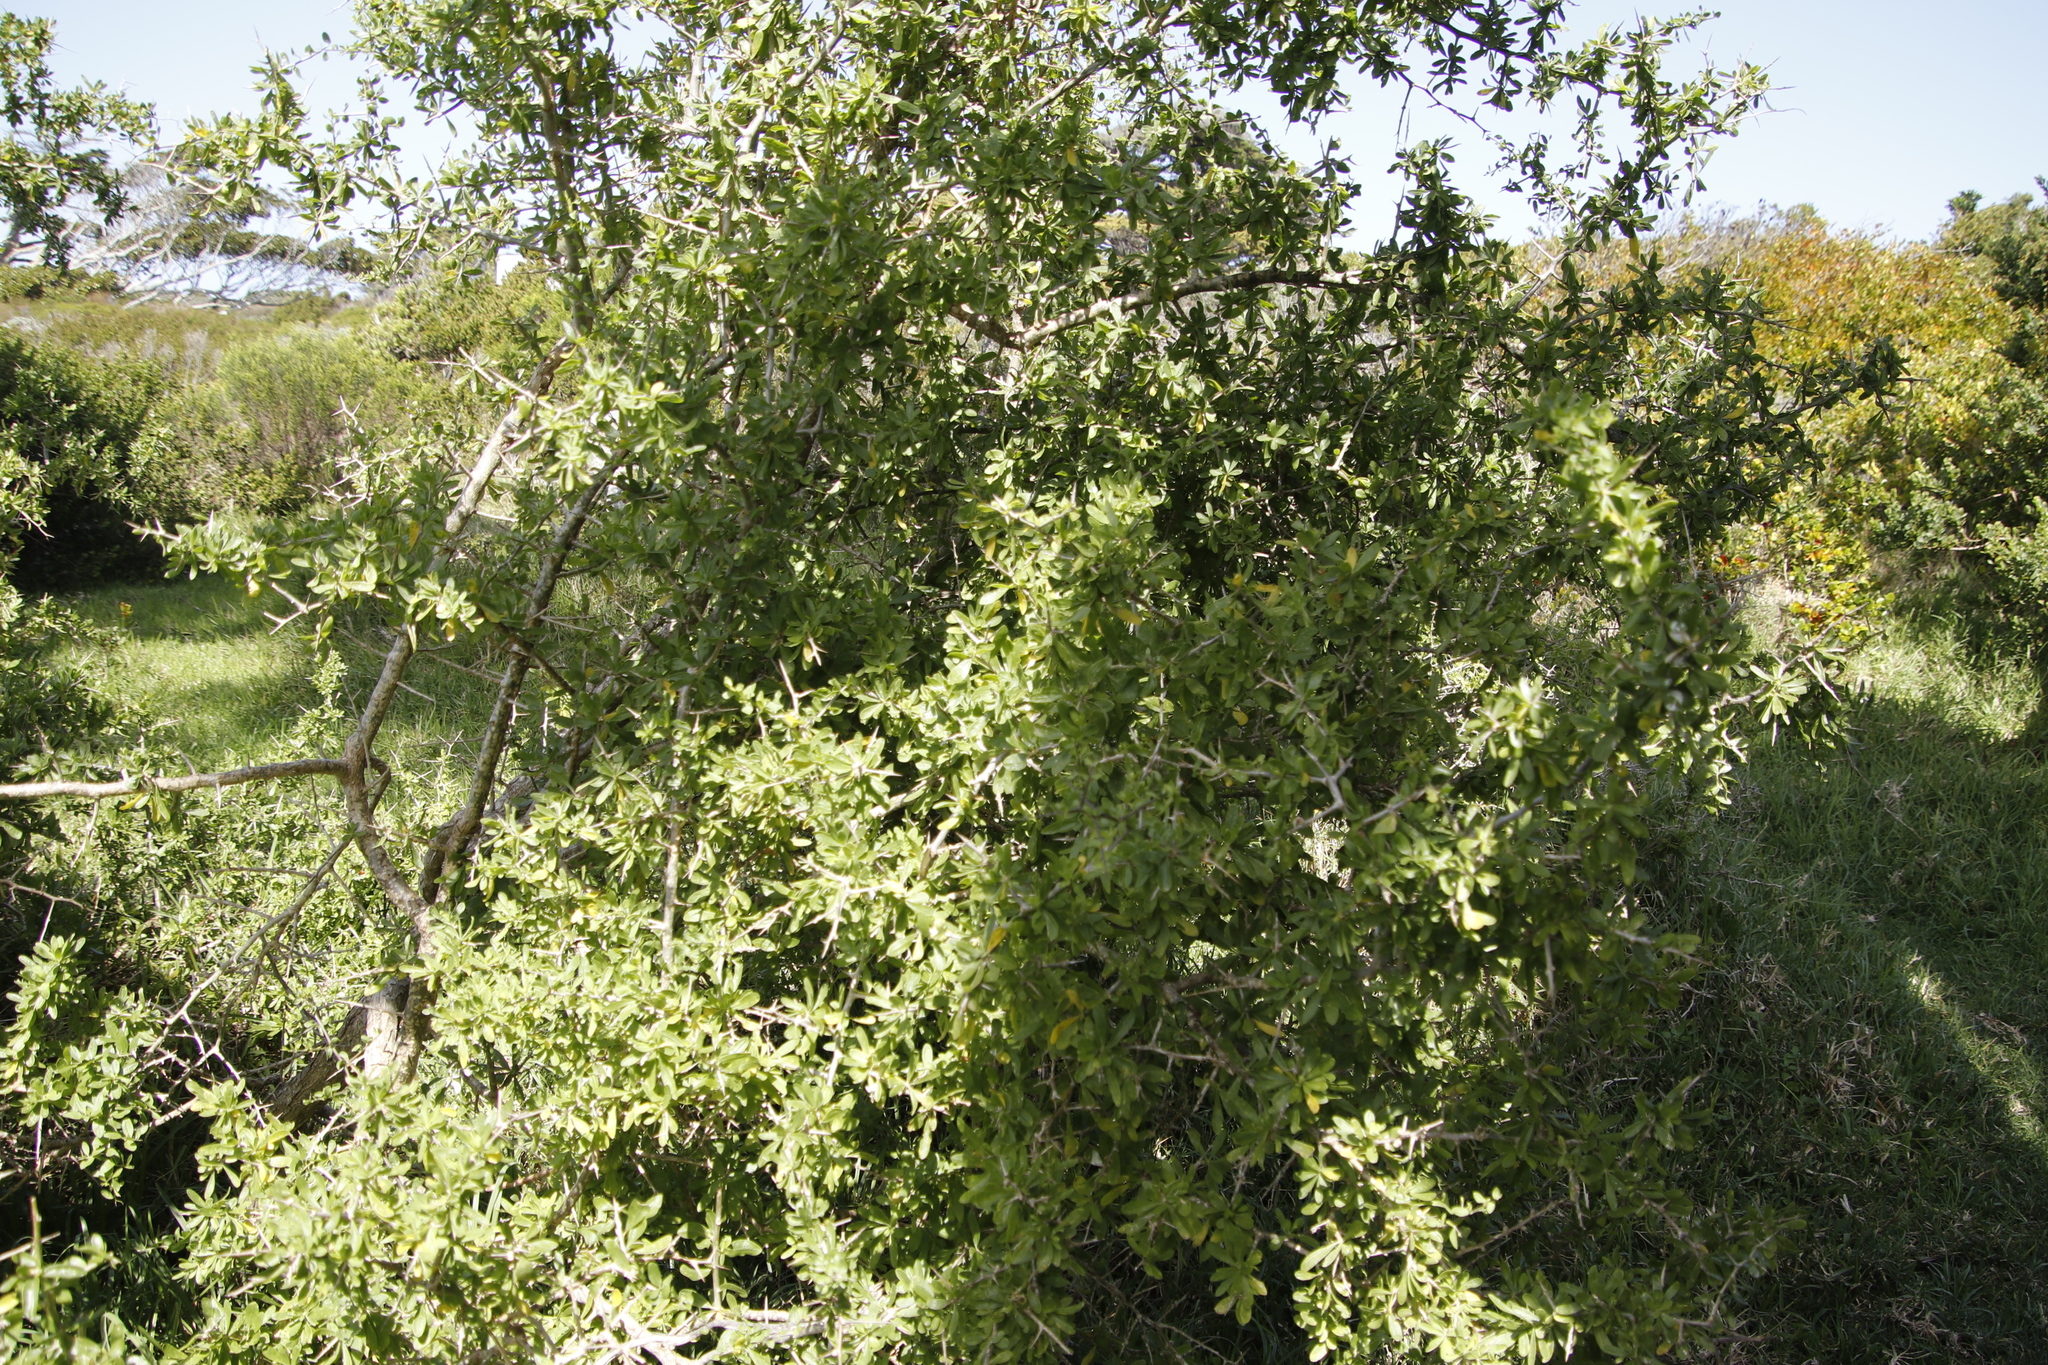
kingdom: Plantae
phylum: Tracheophyta
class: Magnoliopsida
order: Solanales
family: Solanaceae
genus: Lycium
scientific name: Lycium ferocissimum
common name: African boxthorn
